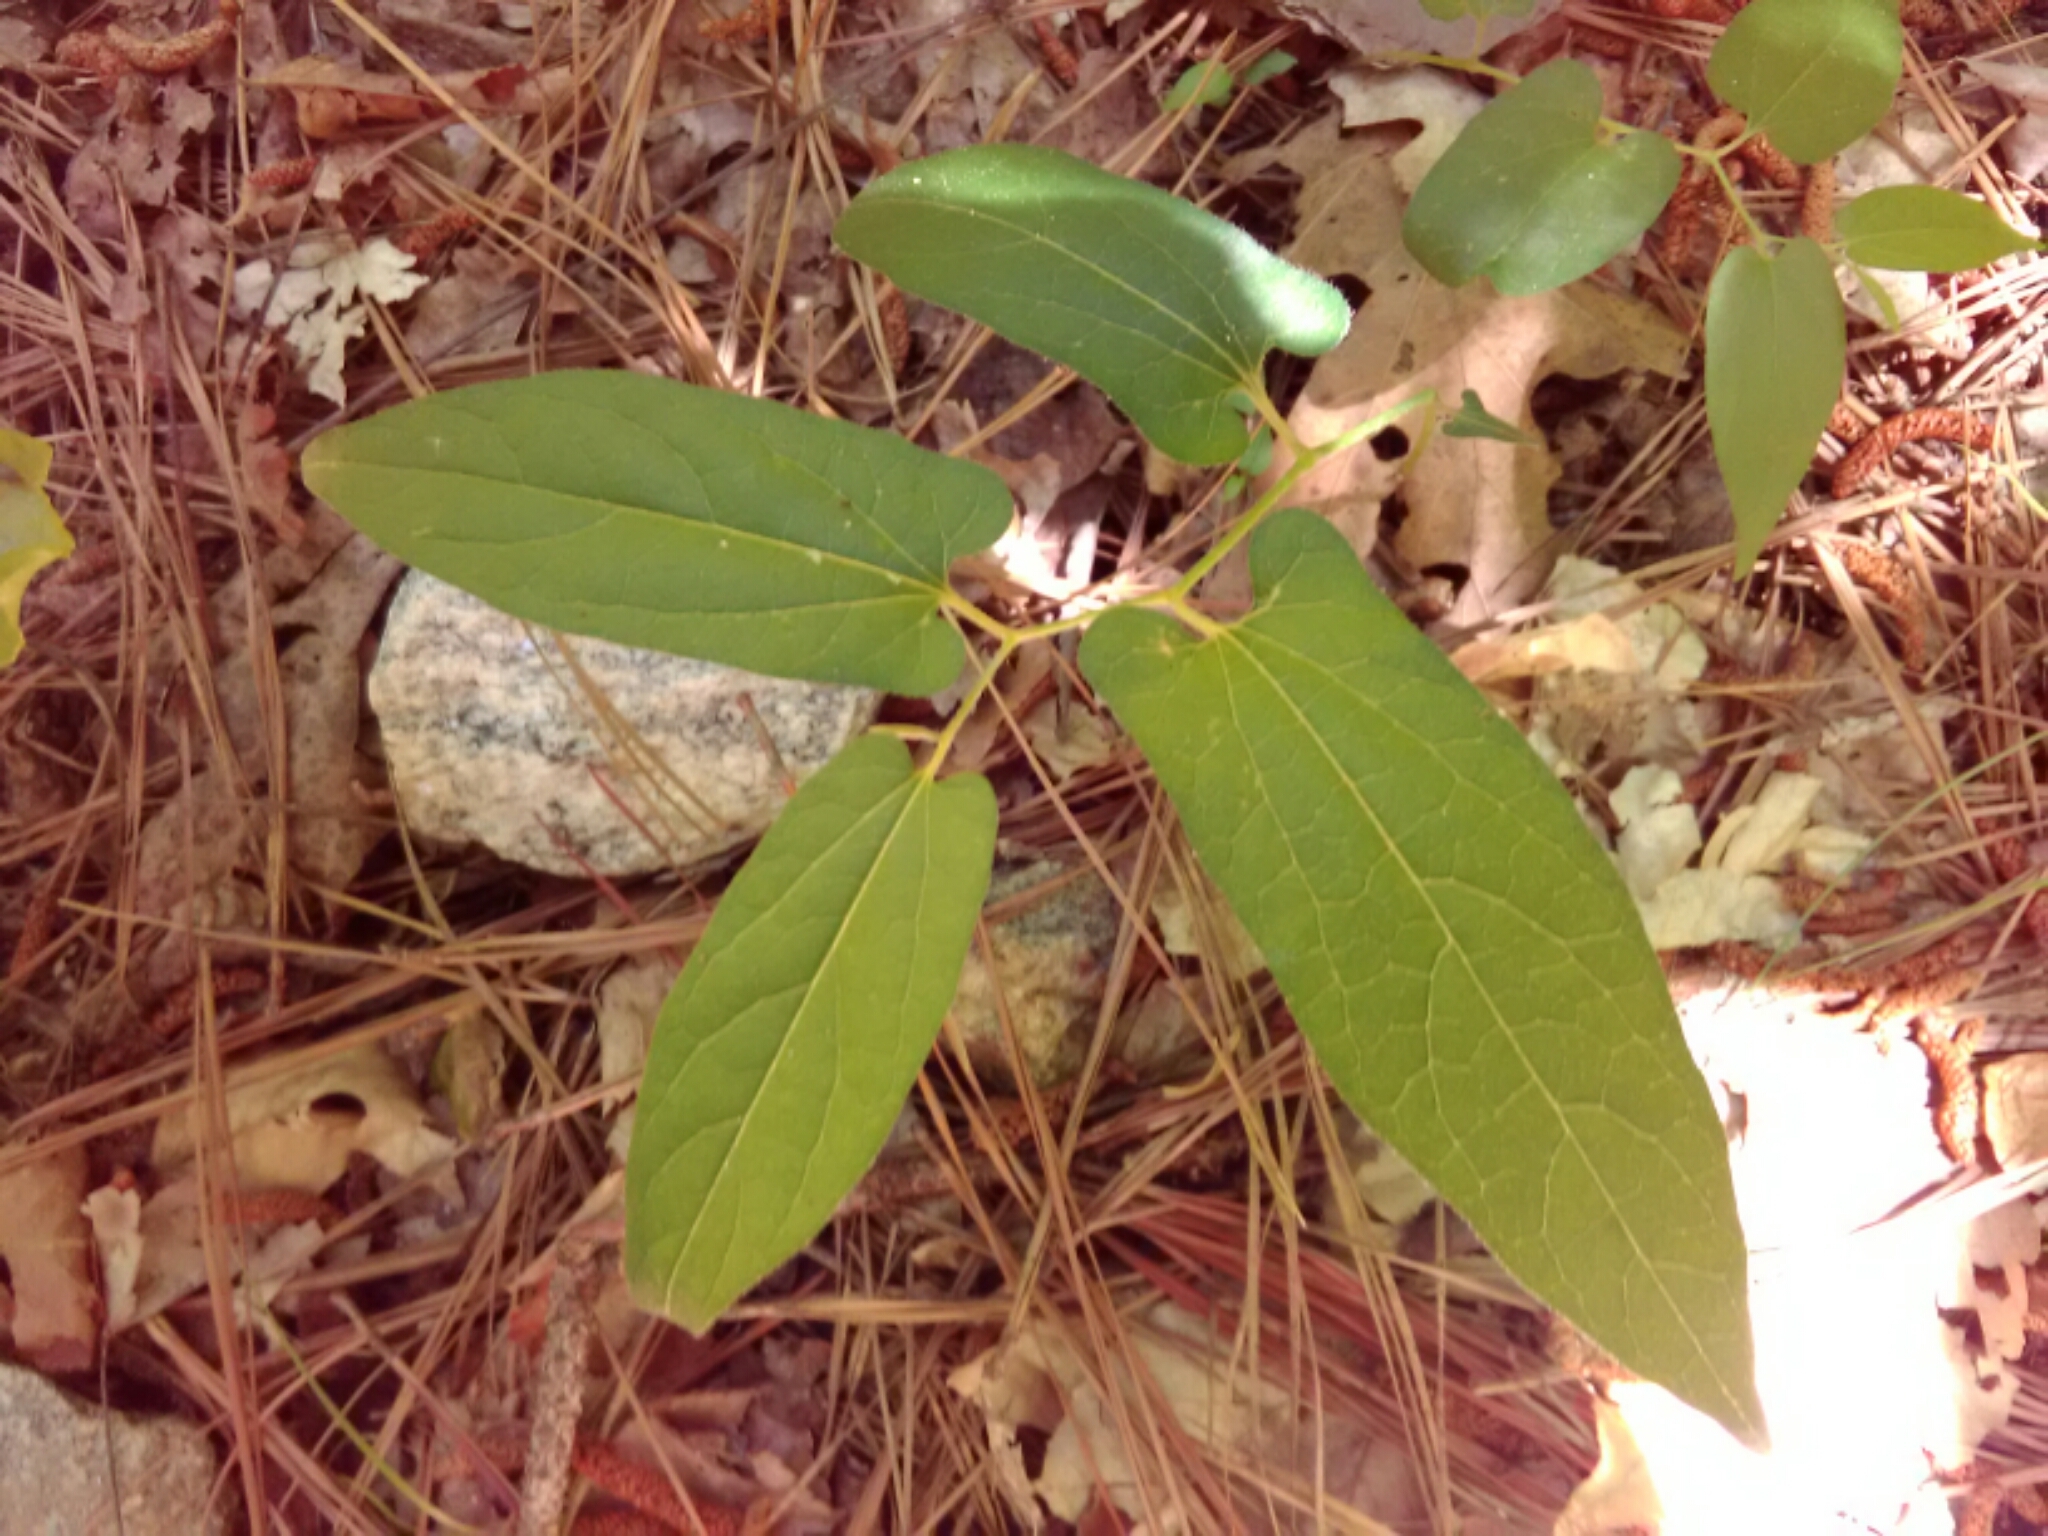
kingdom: Plantae
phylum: Tracheophyta
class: Magnoliopsida
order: Piperales
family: Aristolochiaceae
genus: Endodeca
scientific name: Endodeca serpentaria
